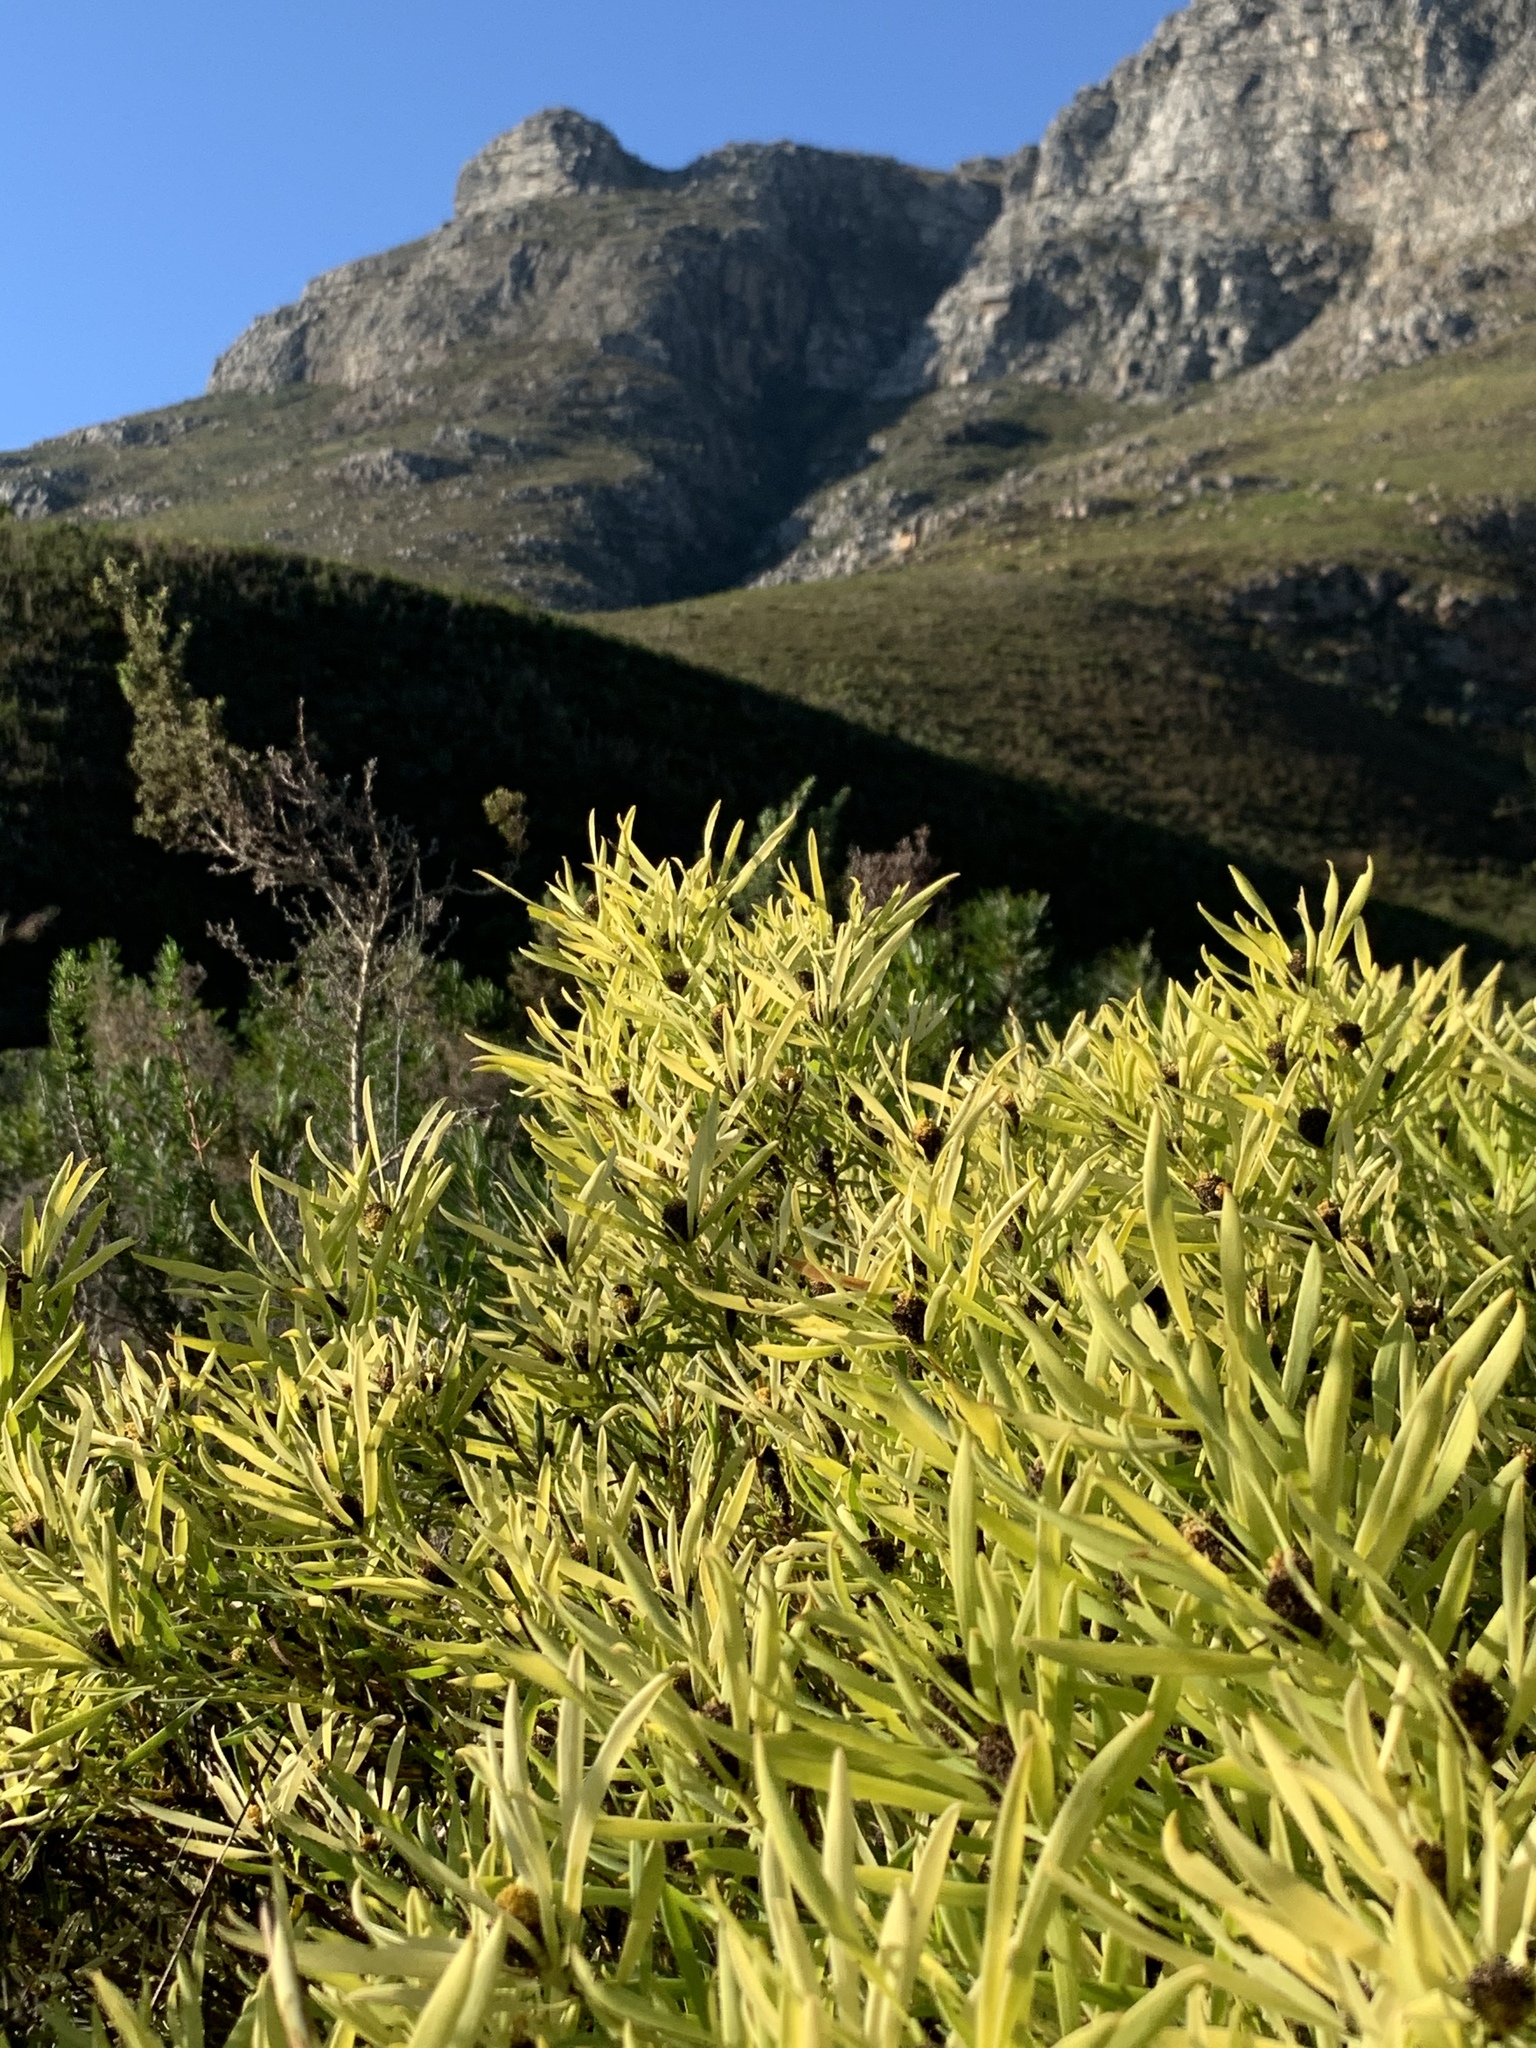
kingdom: Plantae
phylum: Tracheophyta
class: Magnoliopsida
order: Proteales
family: Proteaceae
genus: Leucadendron
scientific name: Leucadendron salignum
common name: Common sunshine conebush
